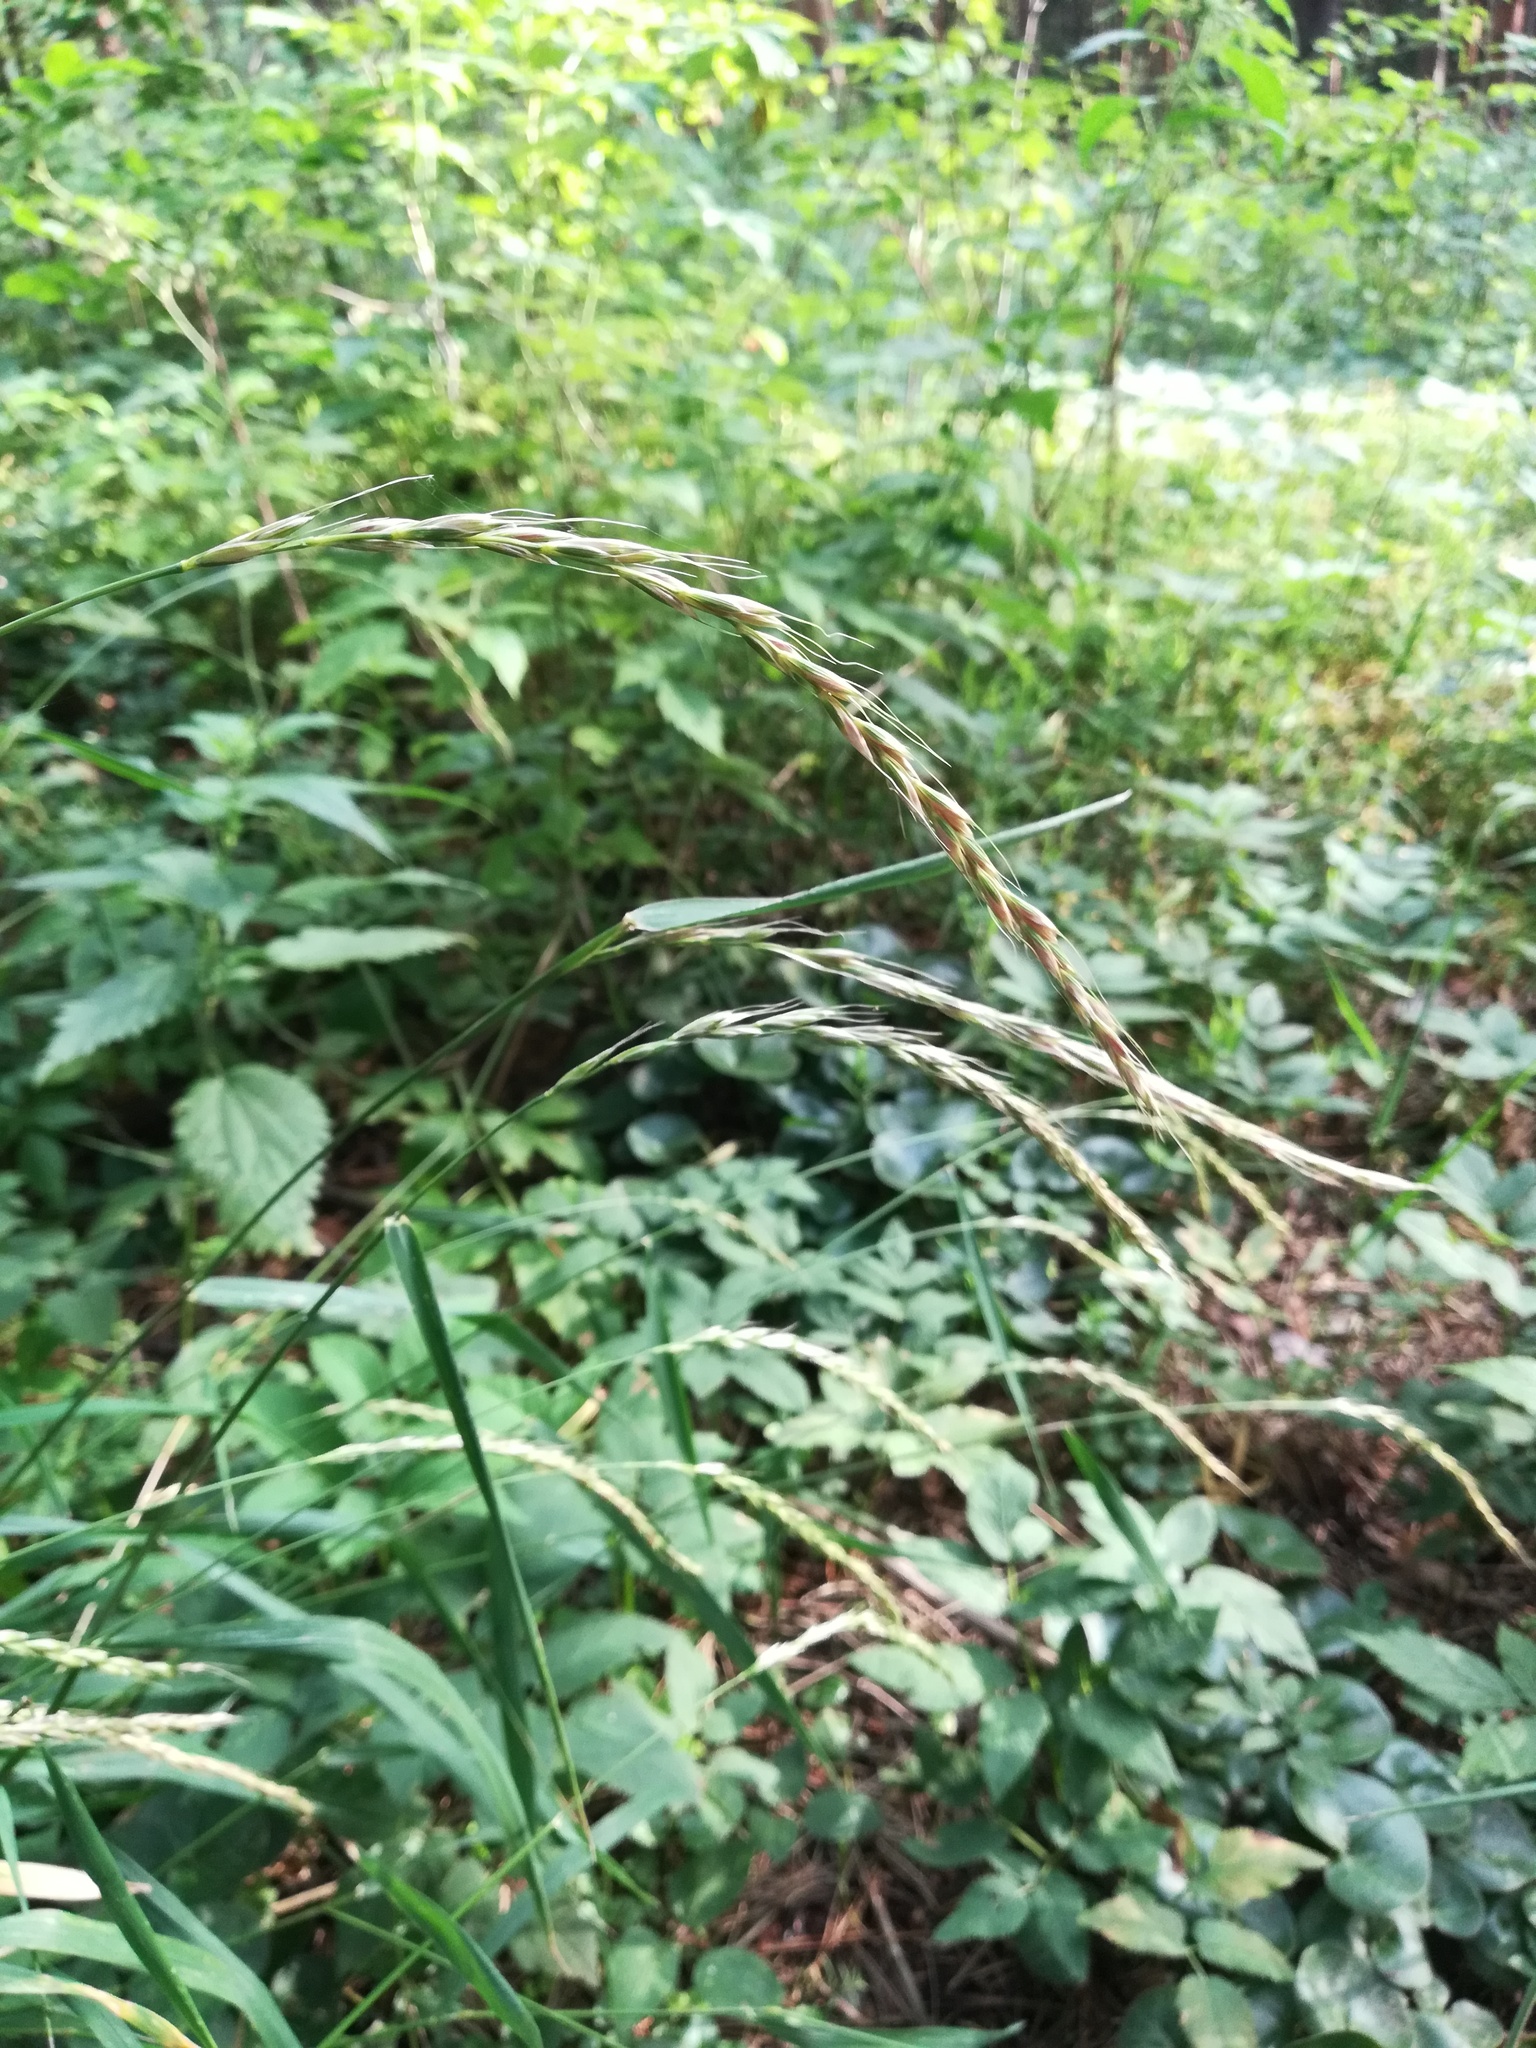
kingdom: Plantae
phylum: Tracheophyta
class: Liliopsida
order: Poales
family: Poaceae
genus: Elymus
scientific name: Elymus caninus
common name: Bearded couch
